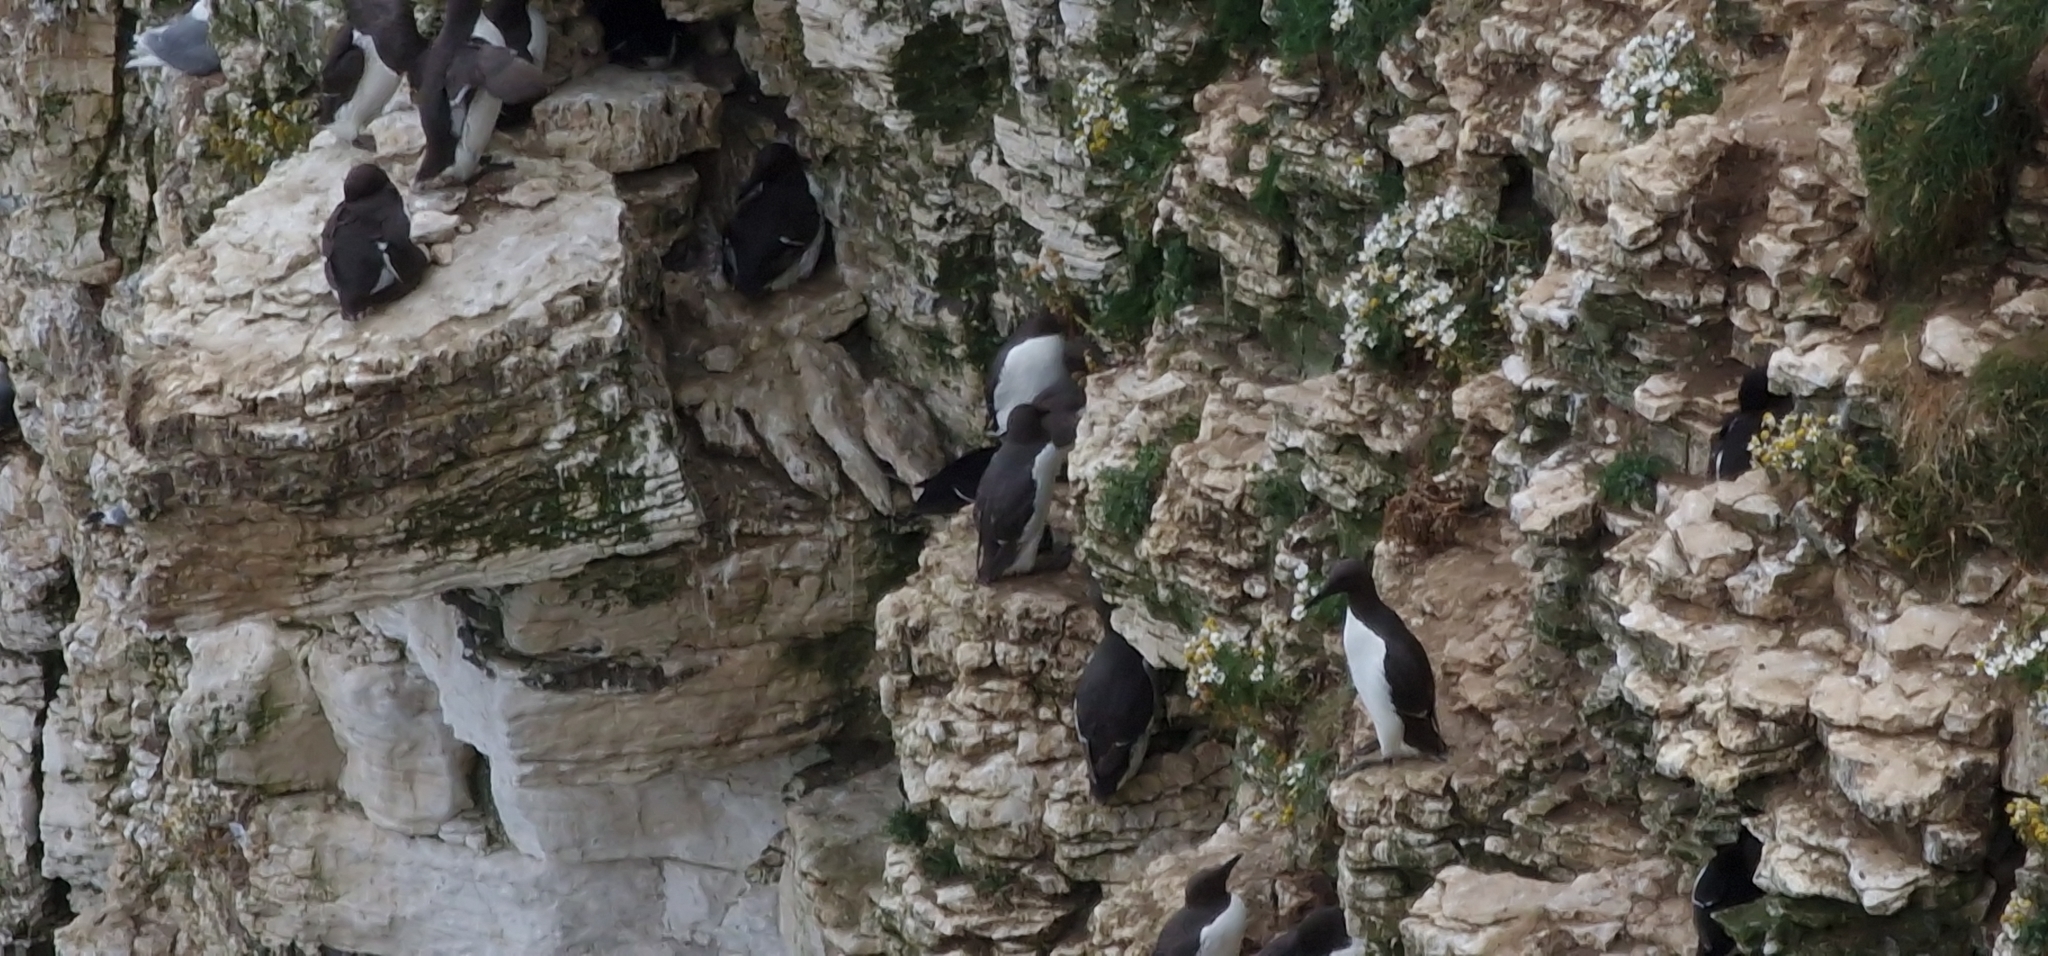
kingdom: Animalia
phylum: Chordata
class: Aves
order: Charadriiformes
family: Alcidae
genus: Uria
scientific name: Uria aalge
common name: Common murre
